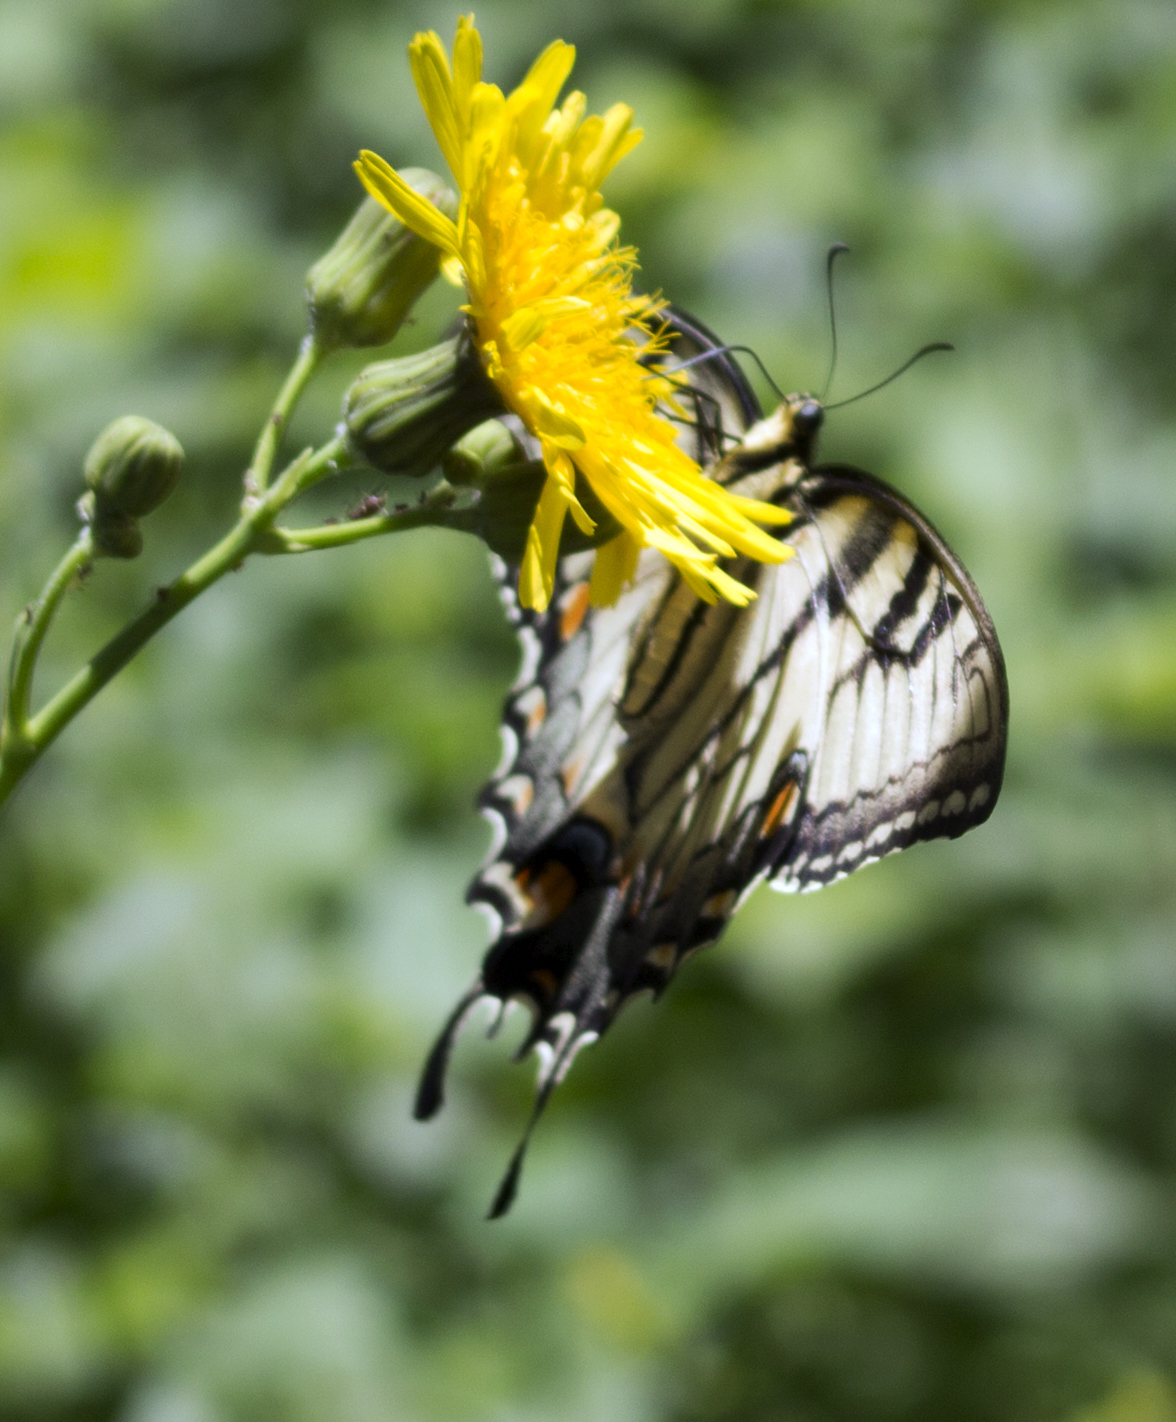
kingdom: Animalia
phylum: Arthropoda
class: Insecta
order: Lepidoptera
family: Papilionidae
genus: Papilio
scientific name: Papilio glaucus
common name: Tiger swallowtail
